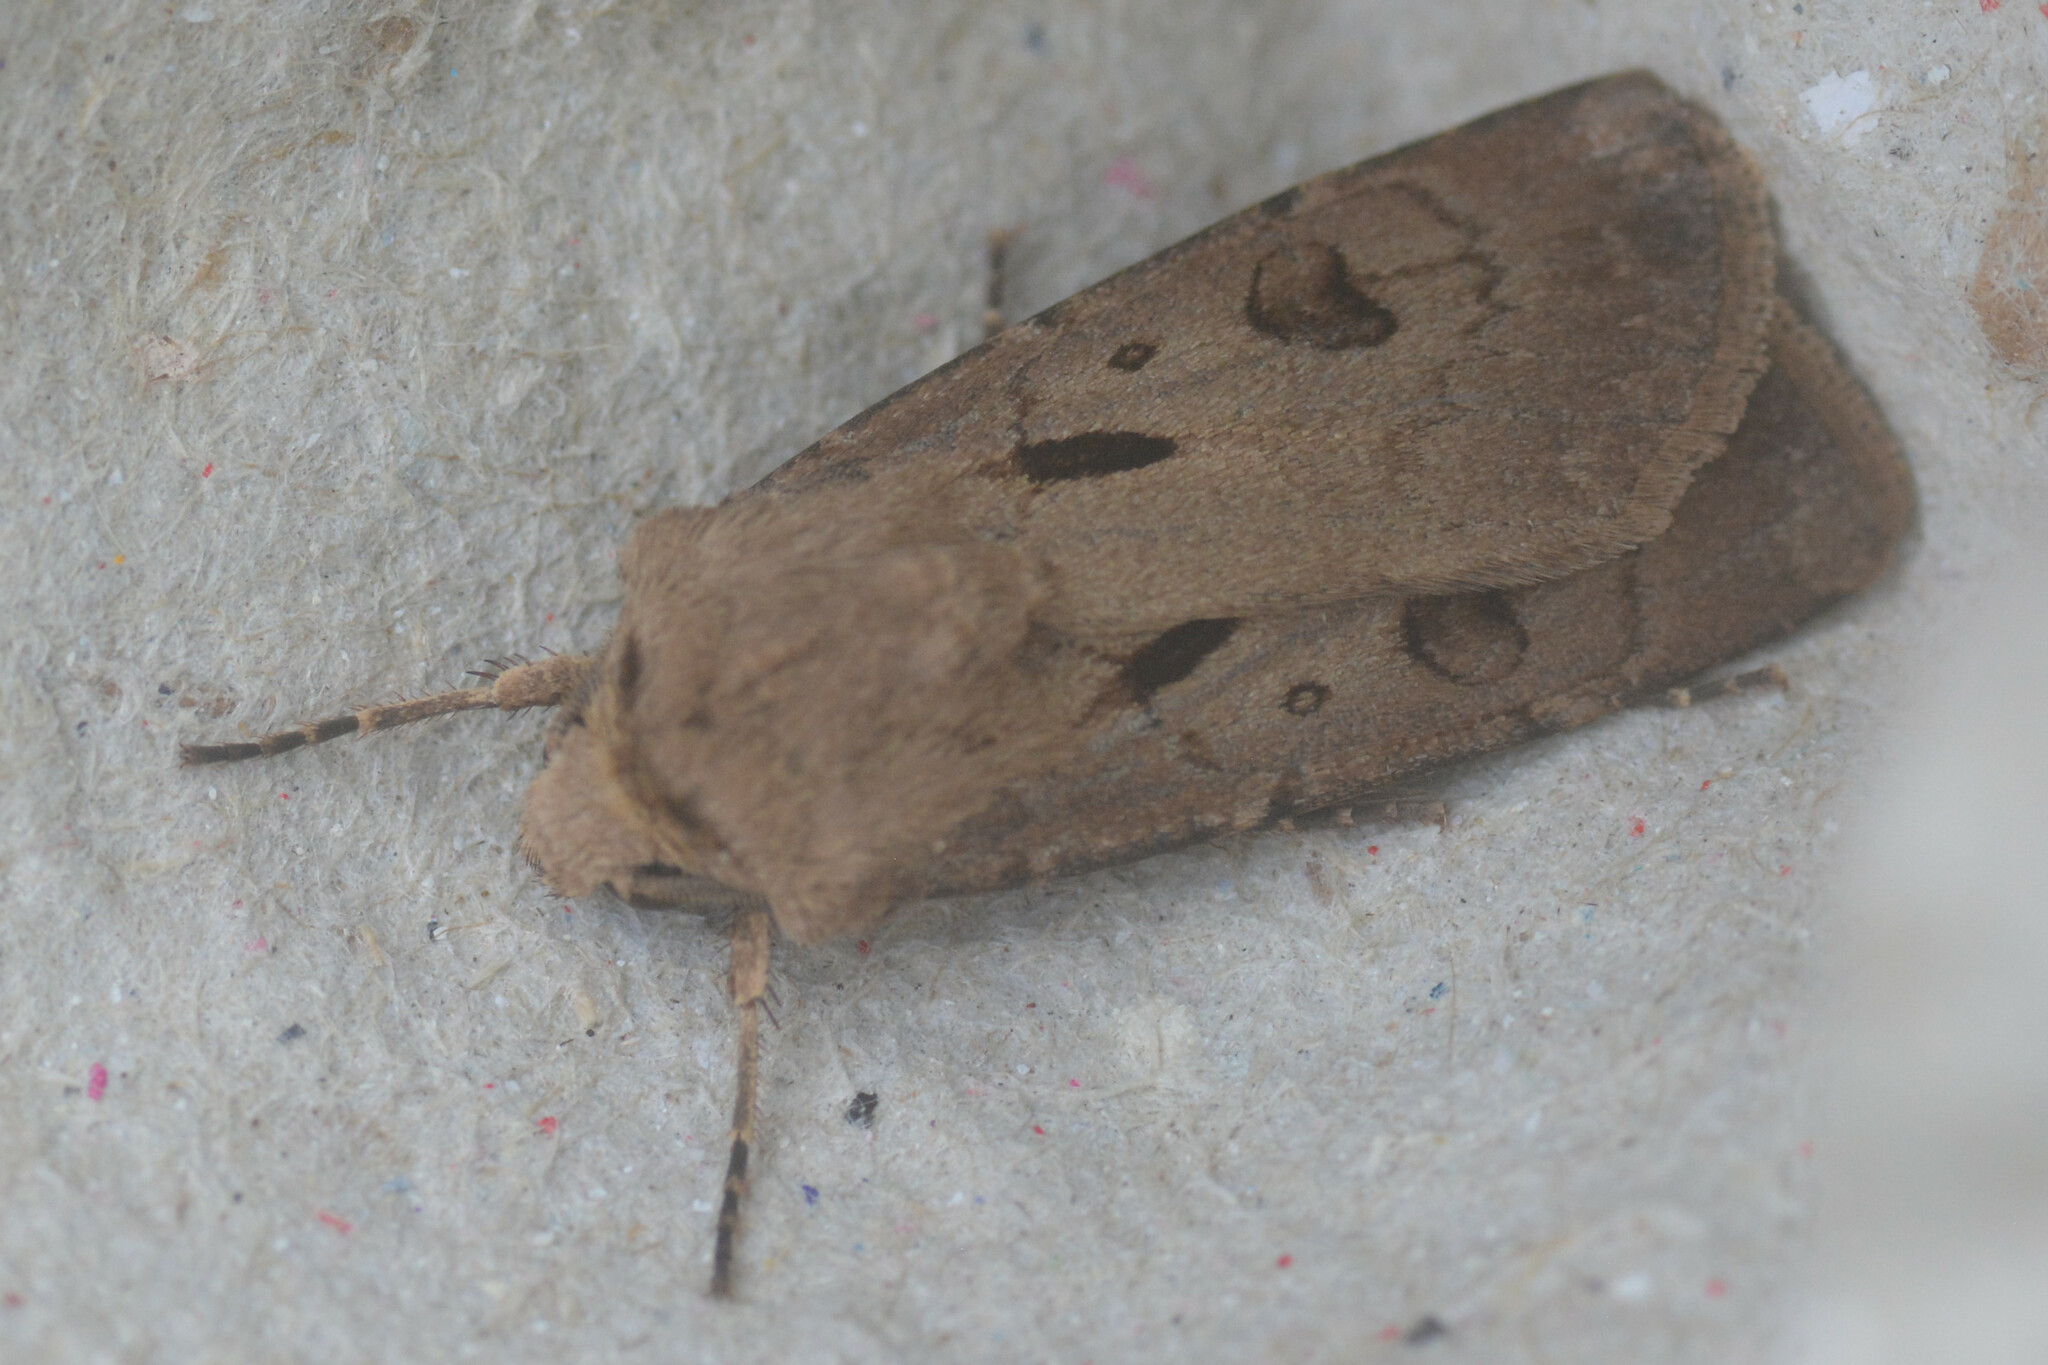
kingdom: Animalia
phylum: Arthropoda
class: Insecta
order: Lepidoptera
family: Noctuidae
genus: Agrotis
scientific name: Agrotis exclamationis
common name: Heart and dart
